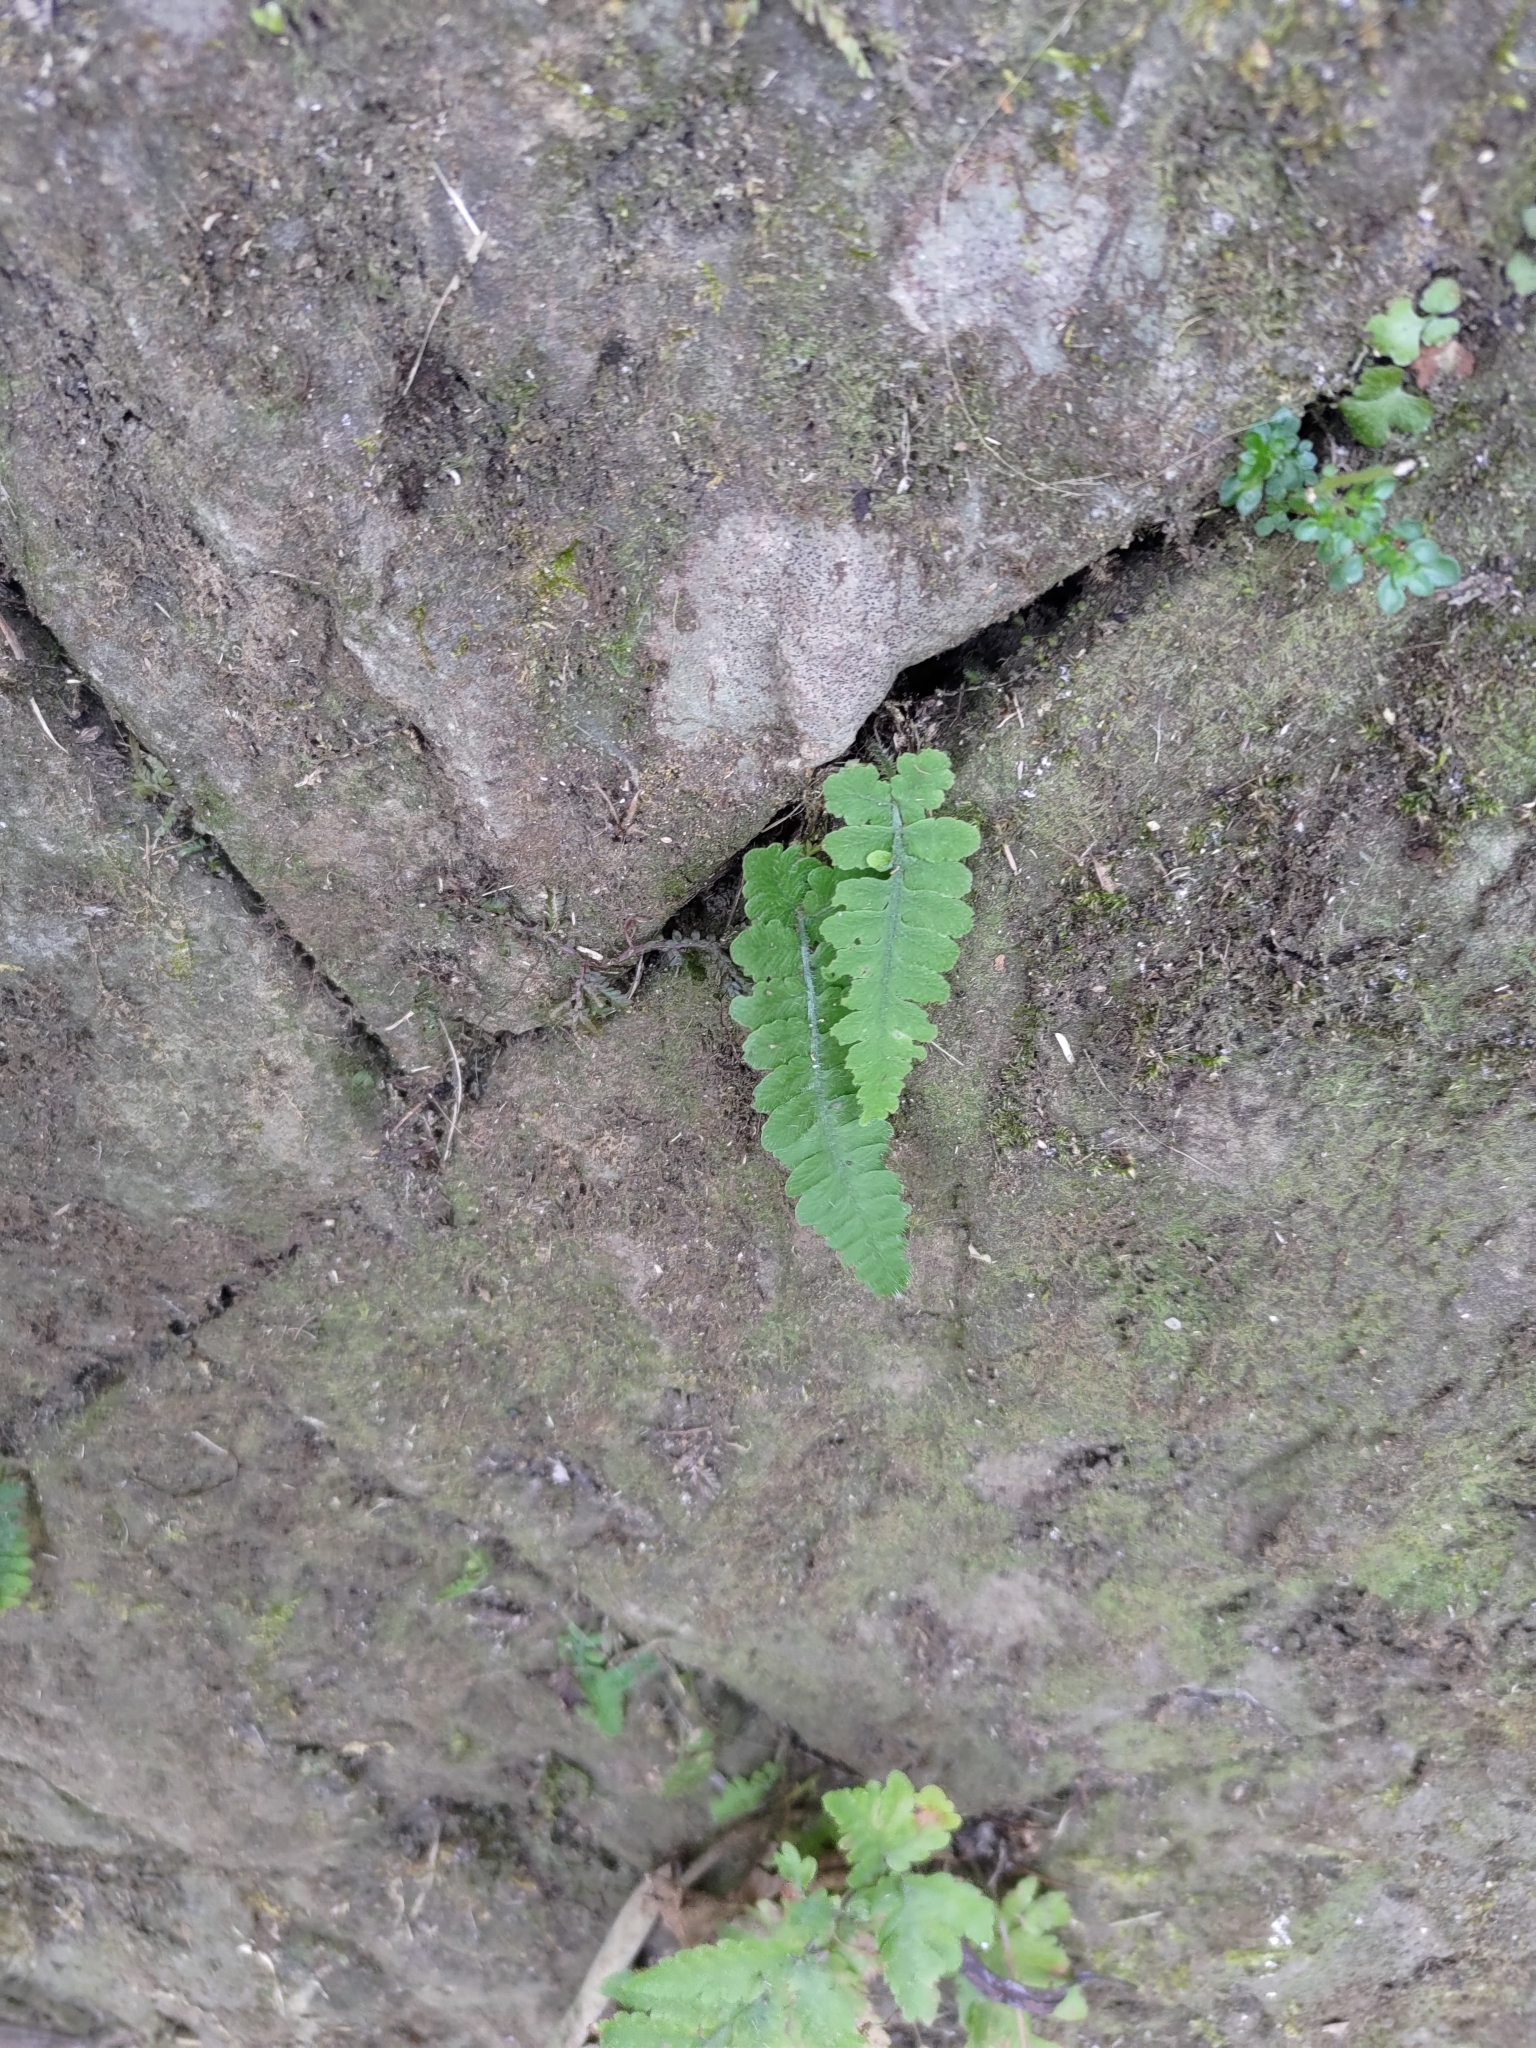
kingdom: Plantae
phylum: Tracheophyta
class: Polypodiopsida
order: Polypodiales
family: Athyriaceae
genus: Deparia
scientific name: Deparia petersenii
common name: Japanese false spleenwort
